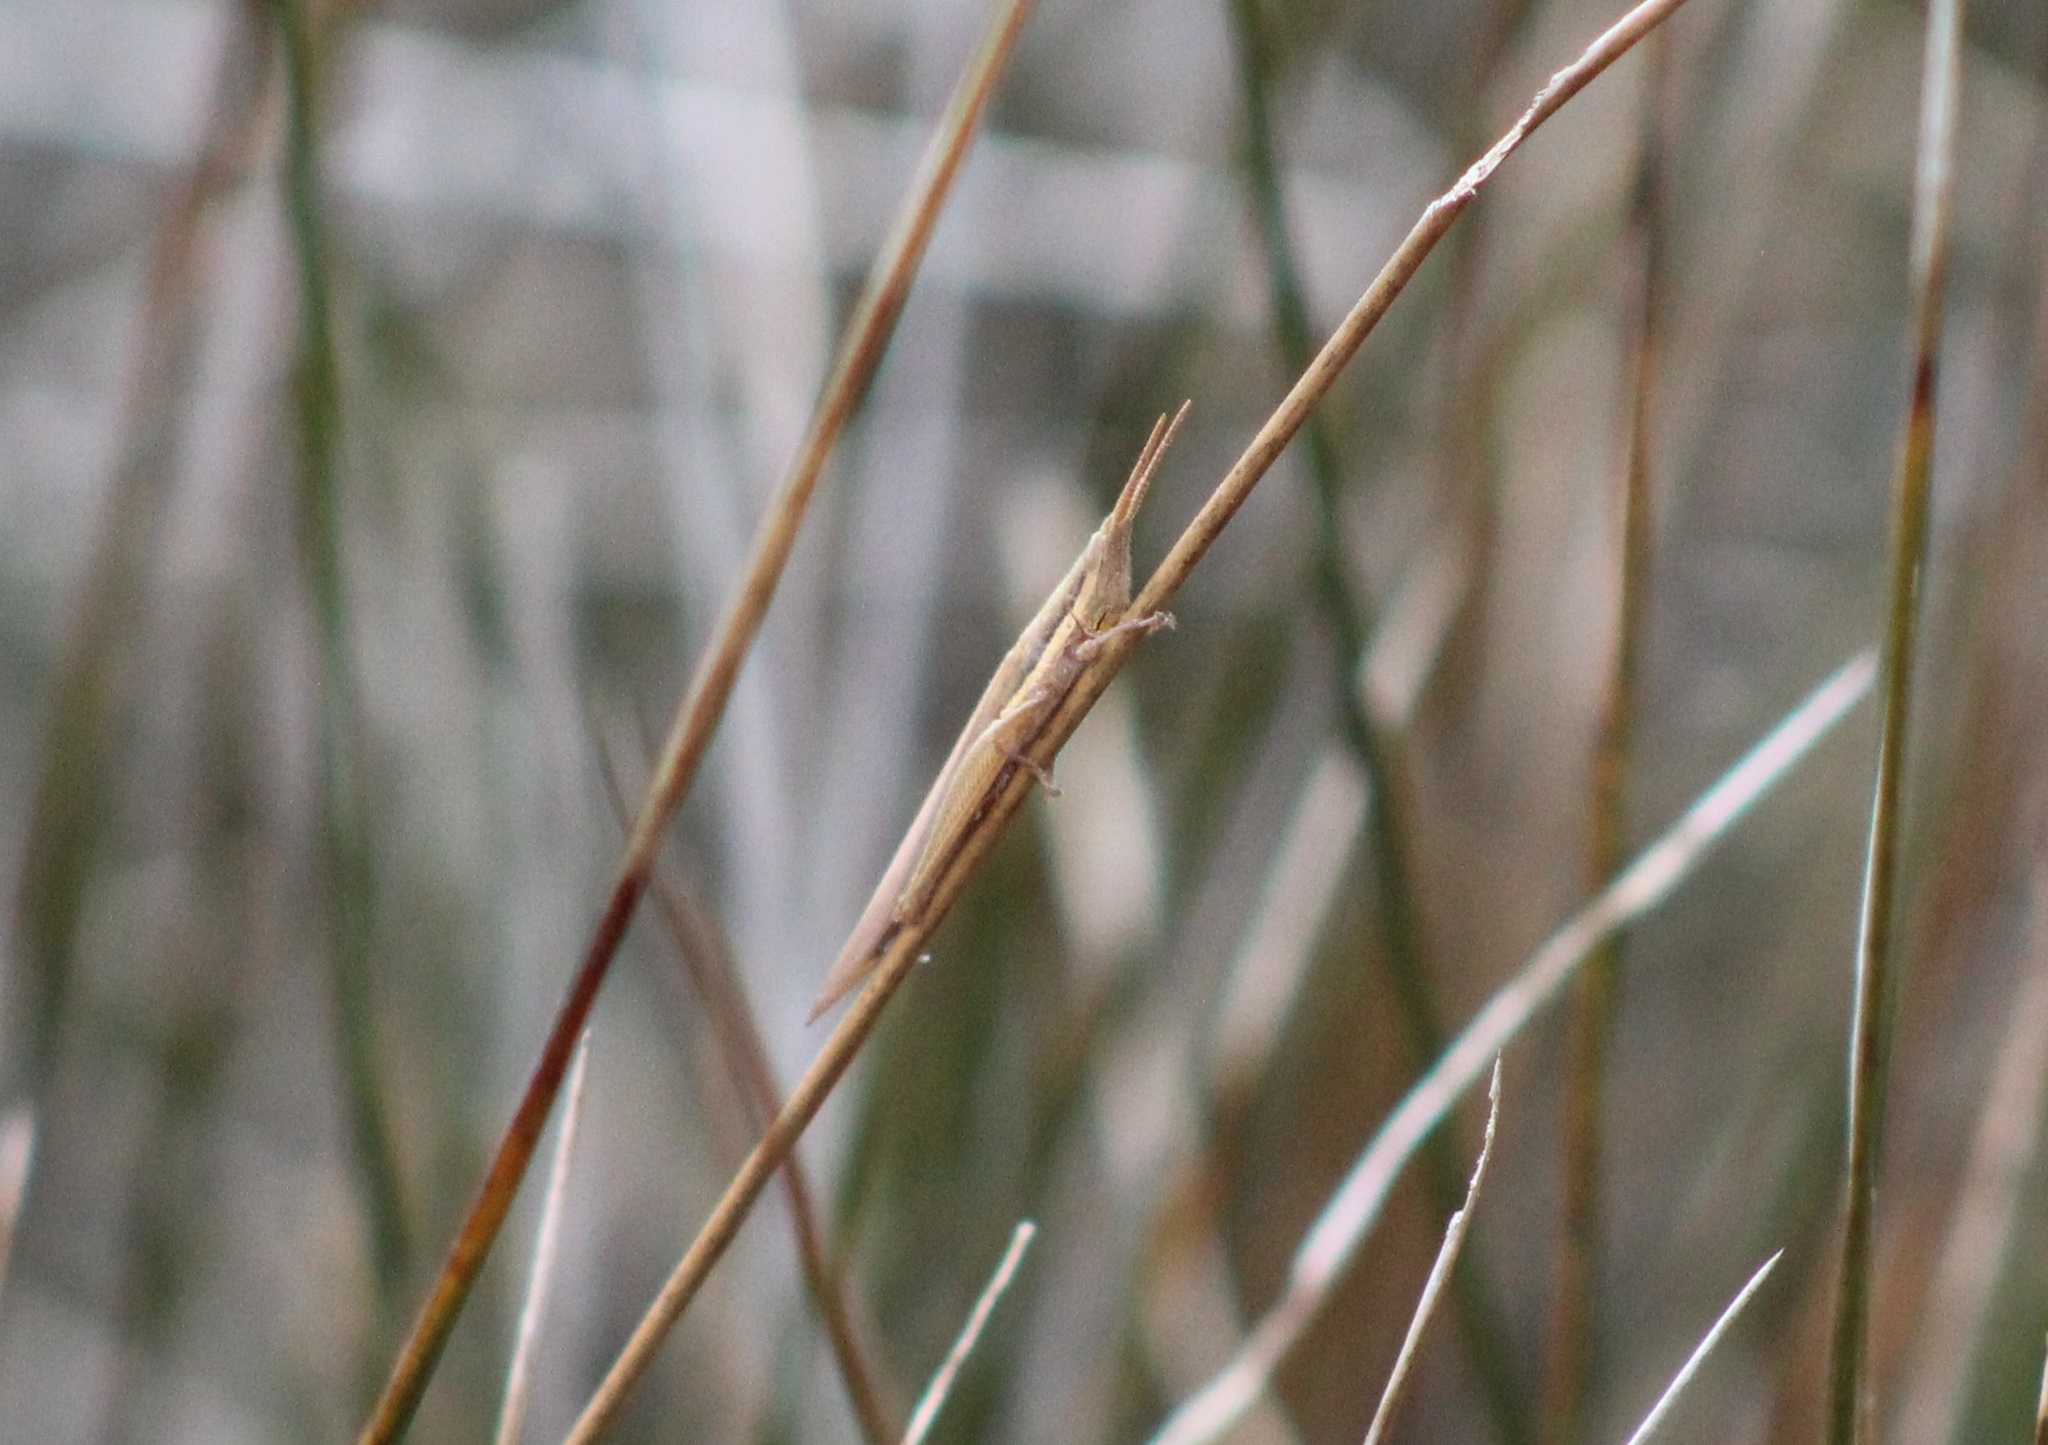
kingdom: Animalia
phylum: Arthropoda
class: Insecta
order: Orthoptera
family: Acrididae
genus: Leptysma
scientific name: Leptysma marginicollis
